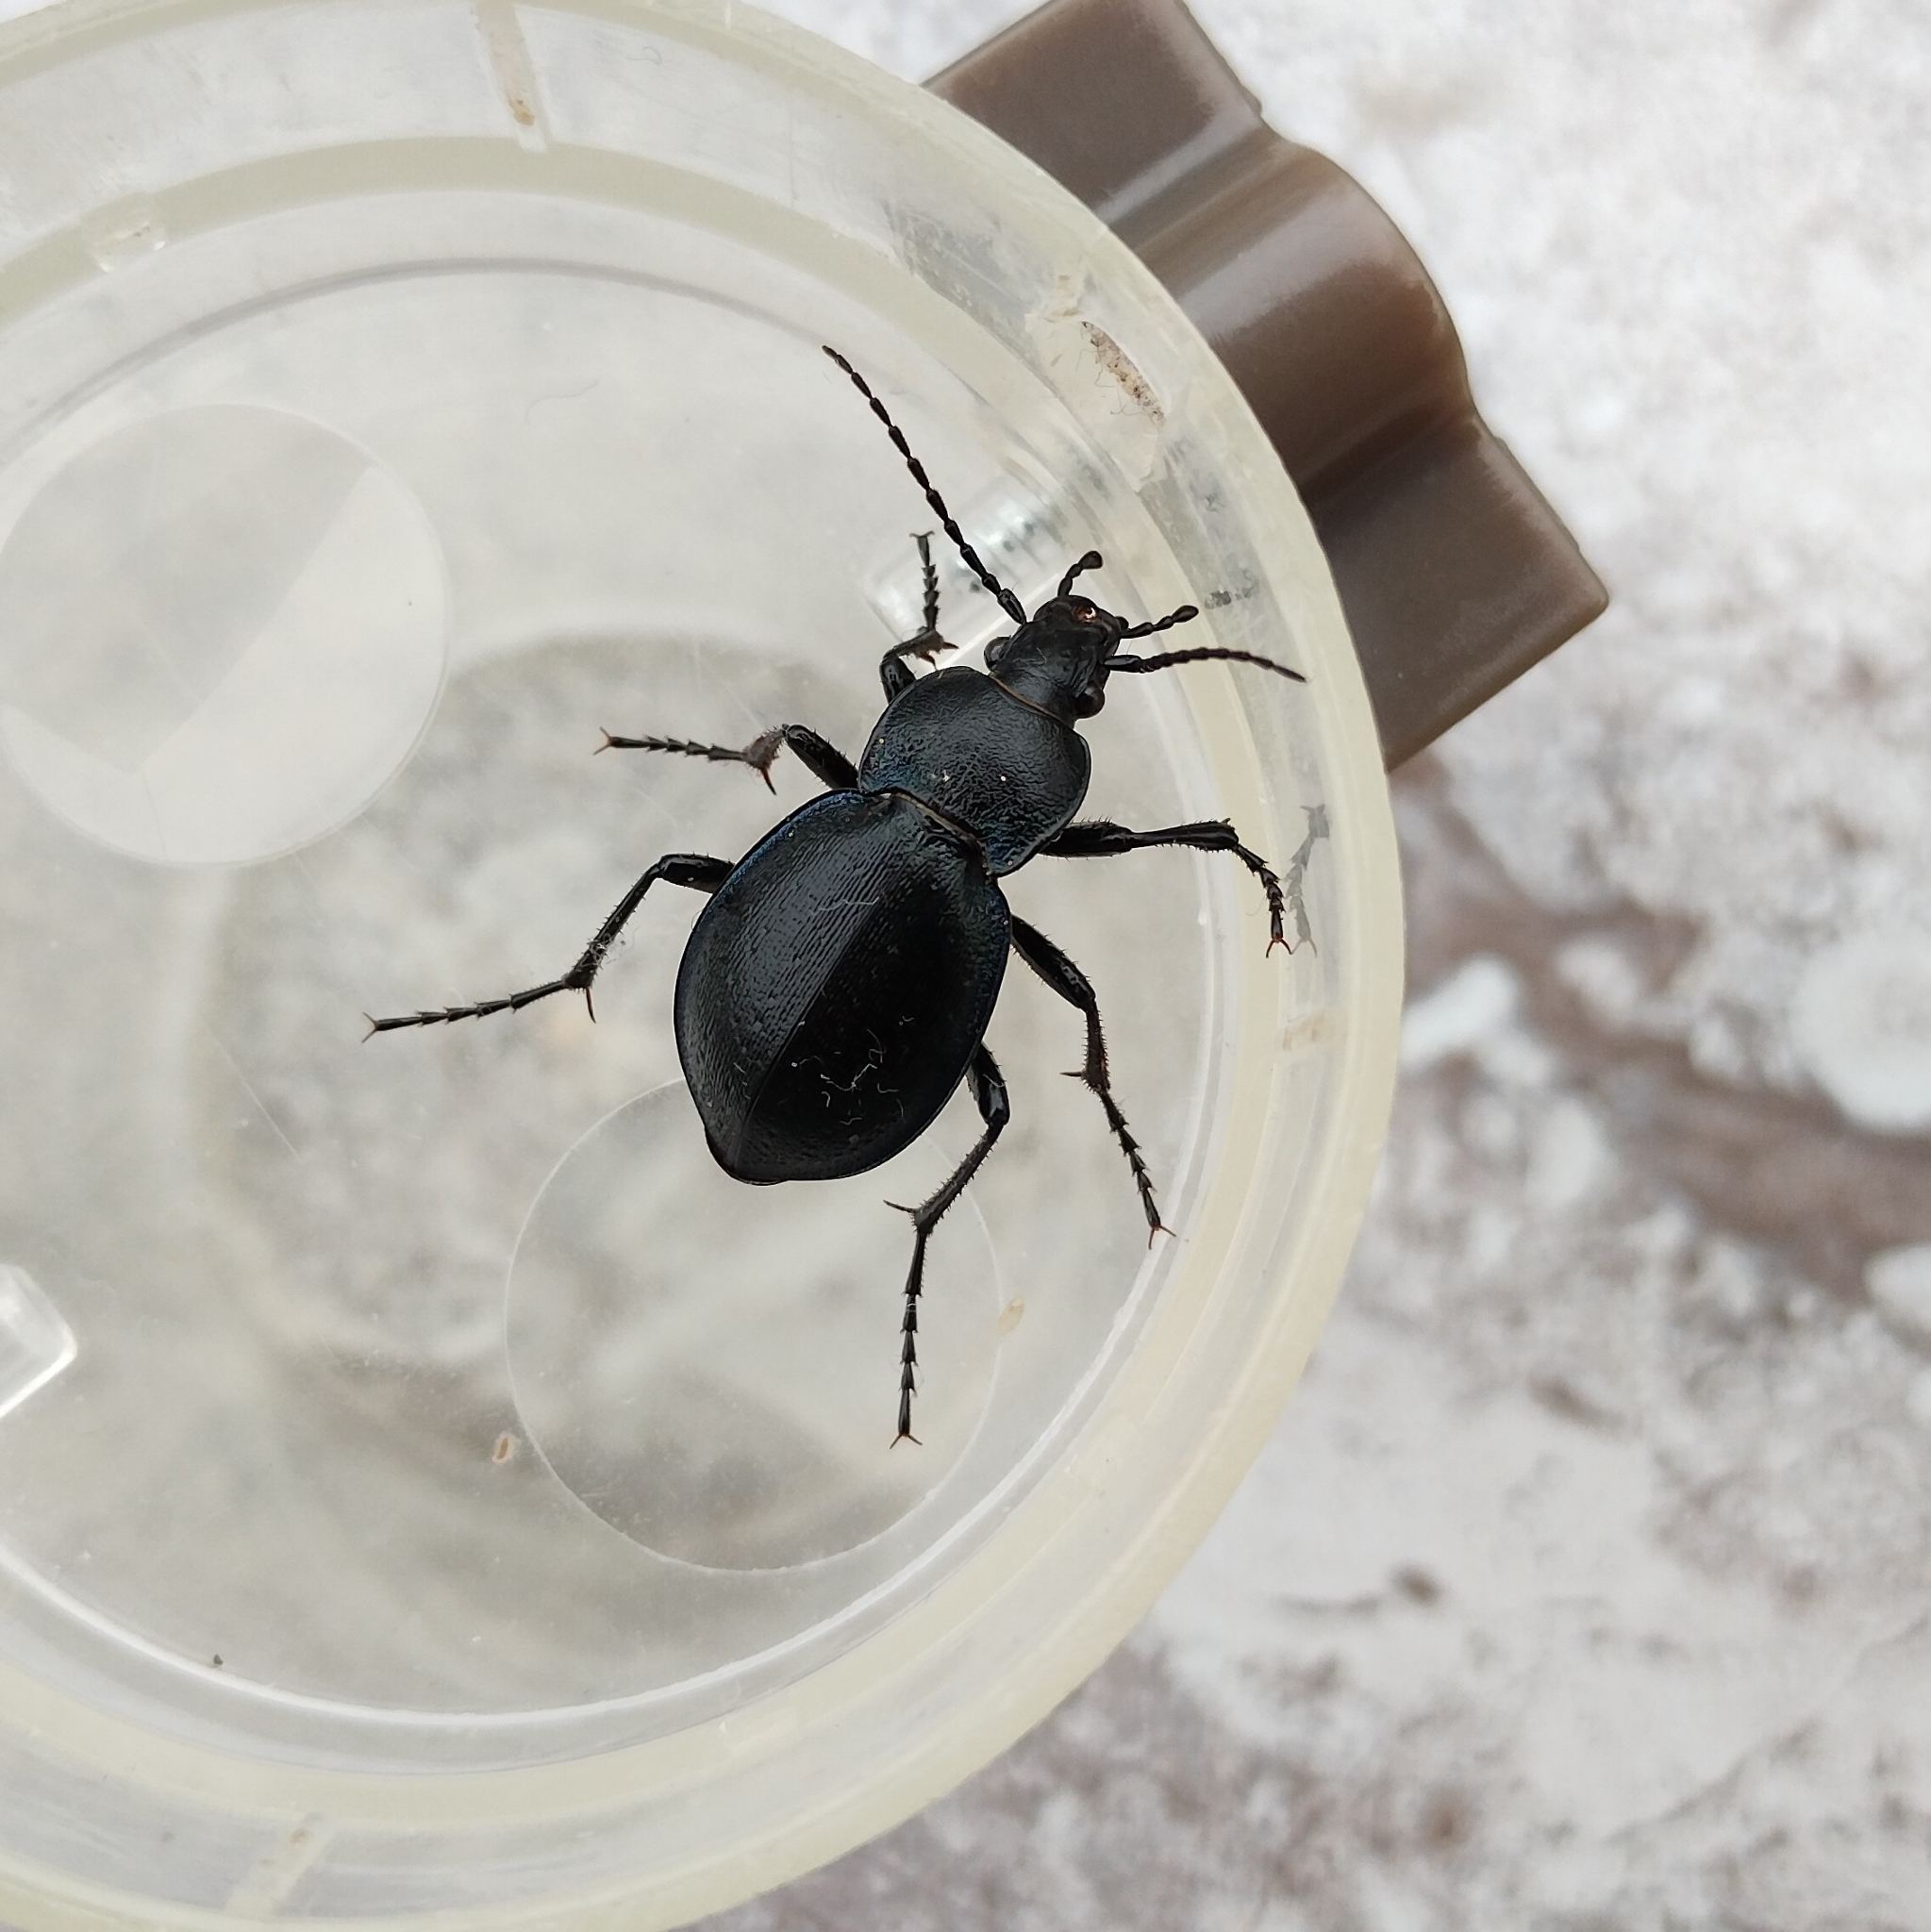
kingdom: Animalia
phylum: Arthropoda
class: Insecta
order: Coleoptera
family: Carabidae
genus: Carabus
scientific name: Carabus convexus
